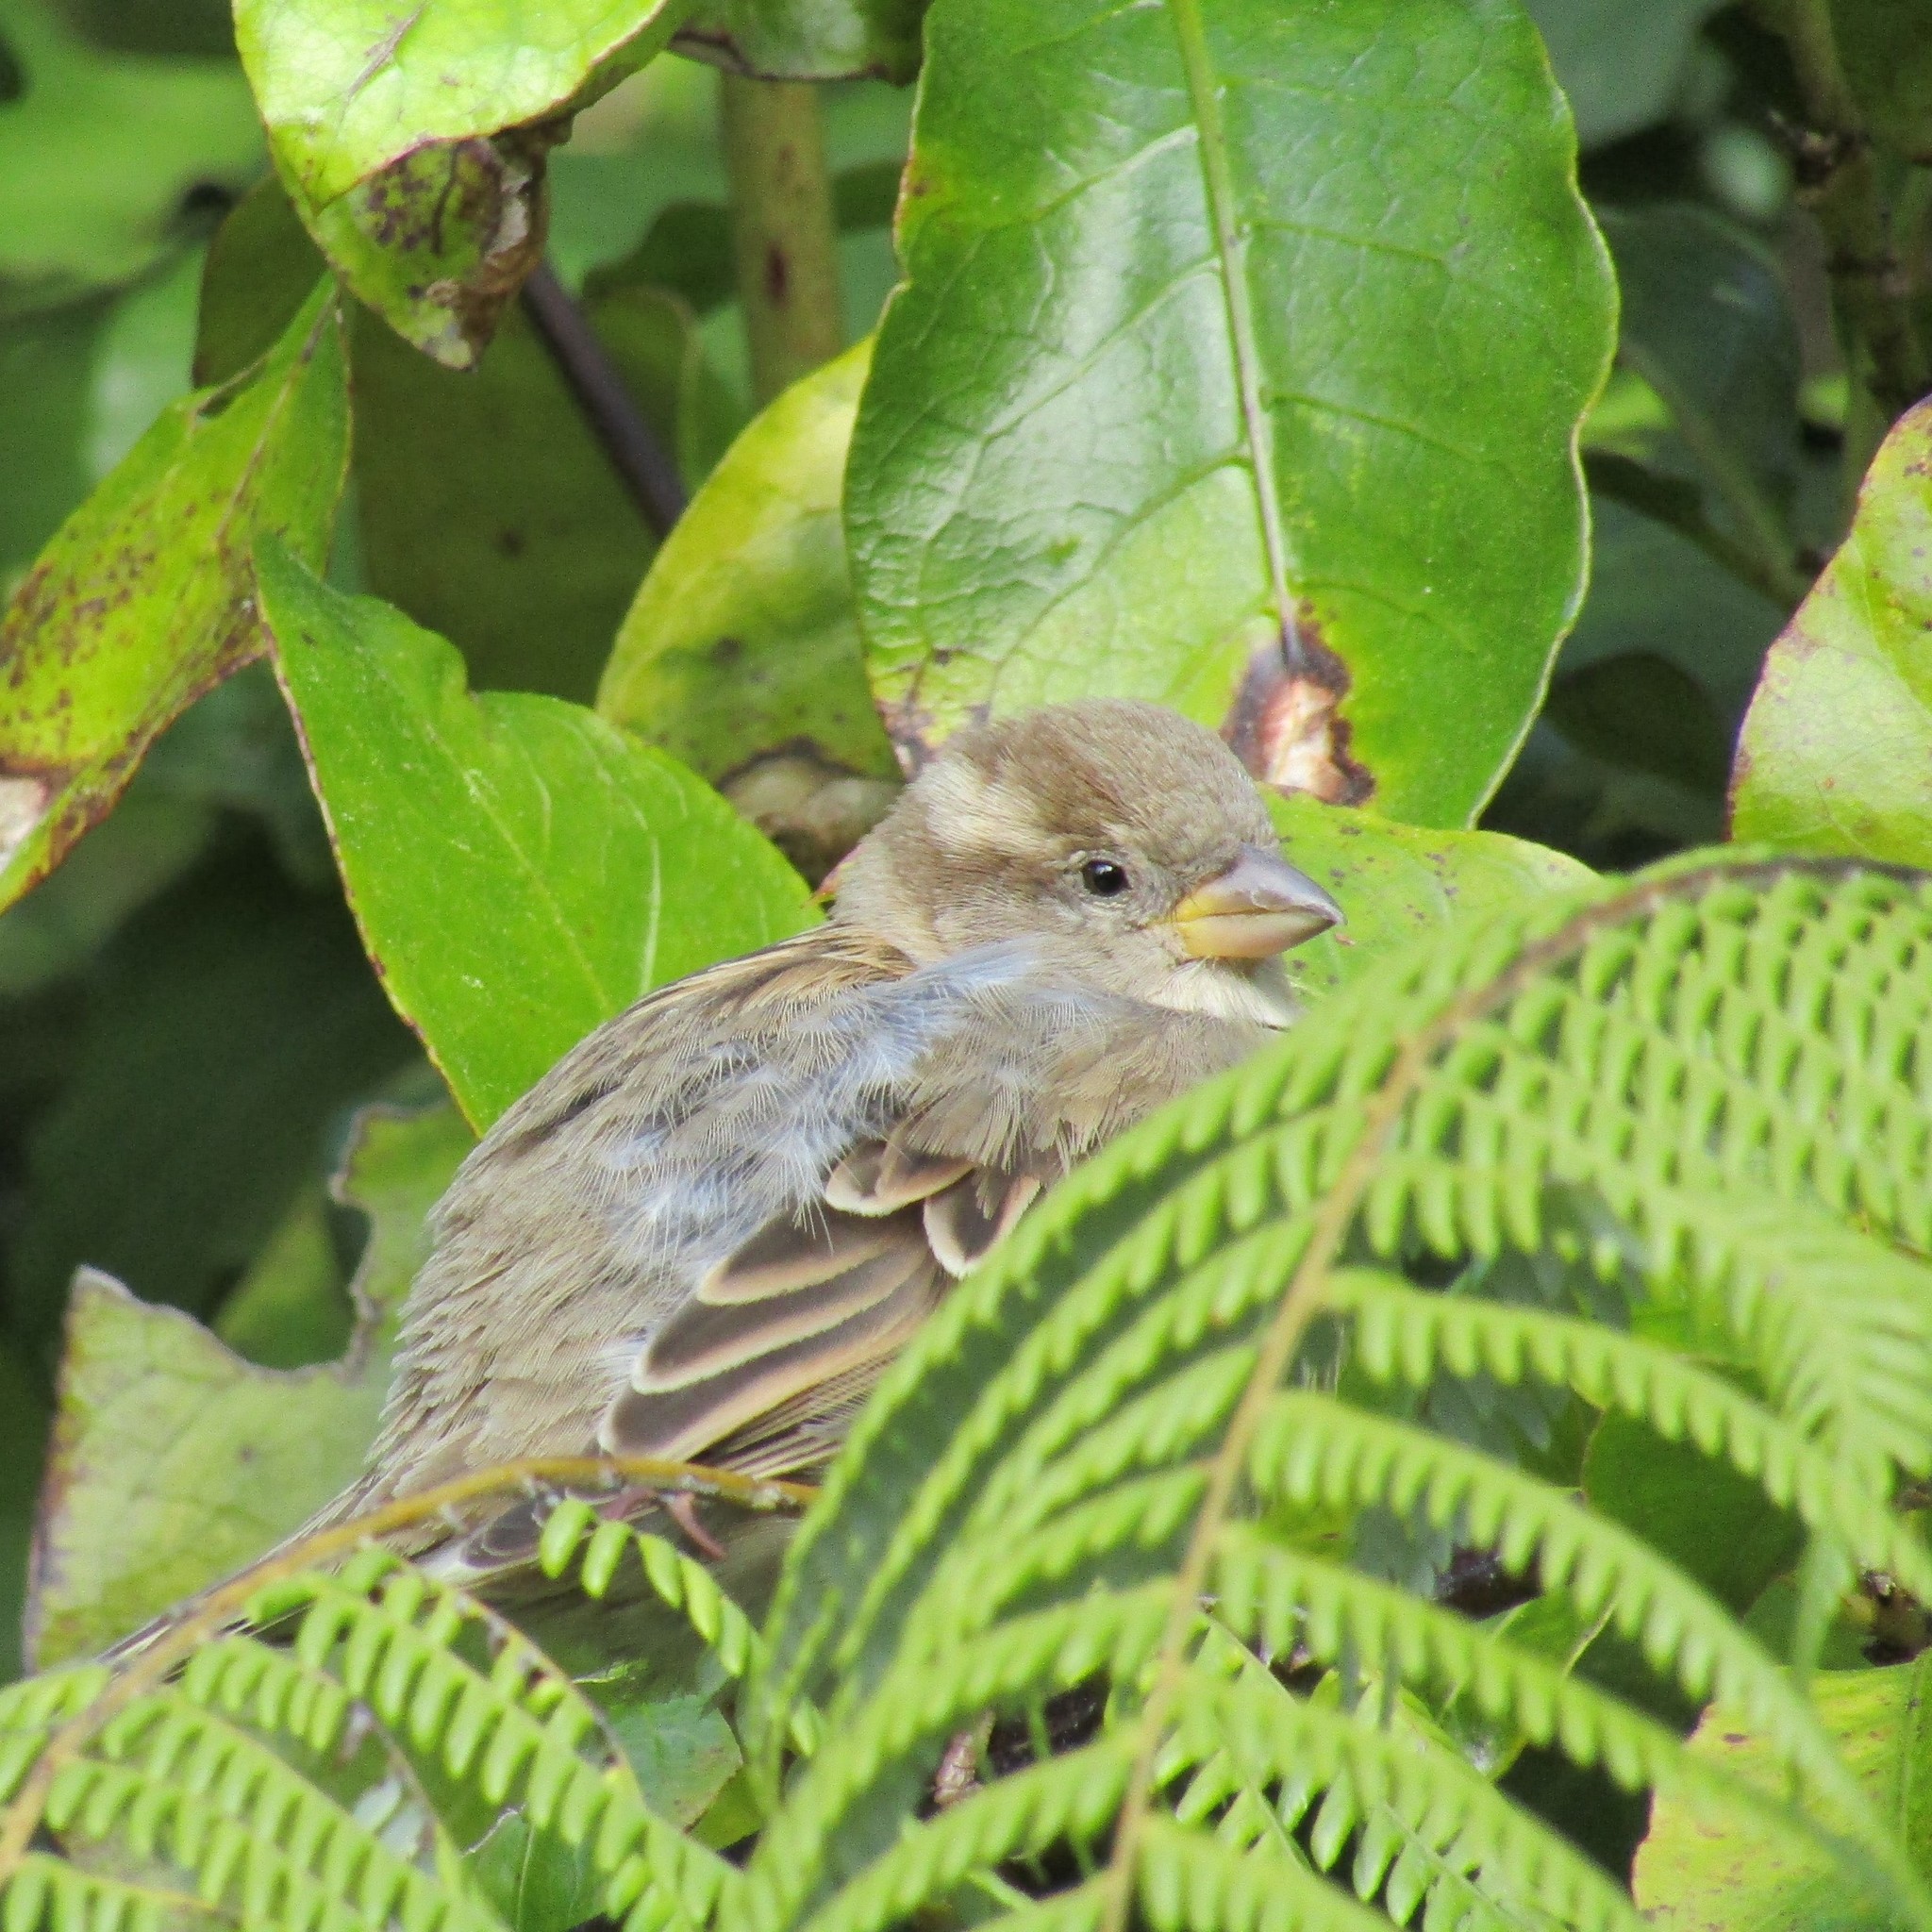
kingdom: Animalia
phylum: Chordata
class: Aves
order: Passeriformes
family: Passeridae
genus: Passer
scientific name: Passer domesticus
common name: House sparrow
